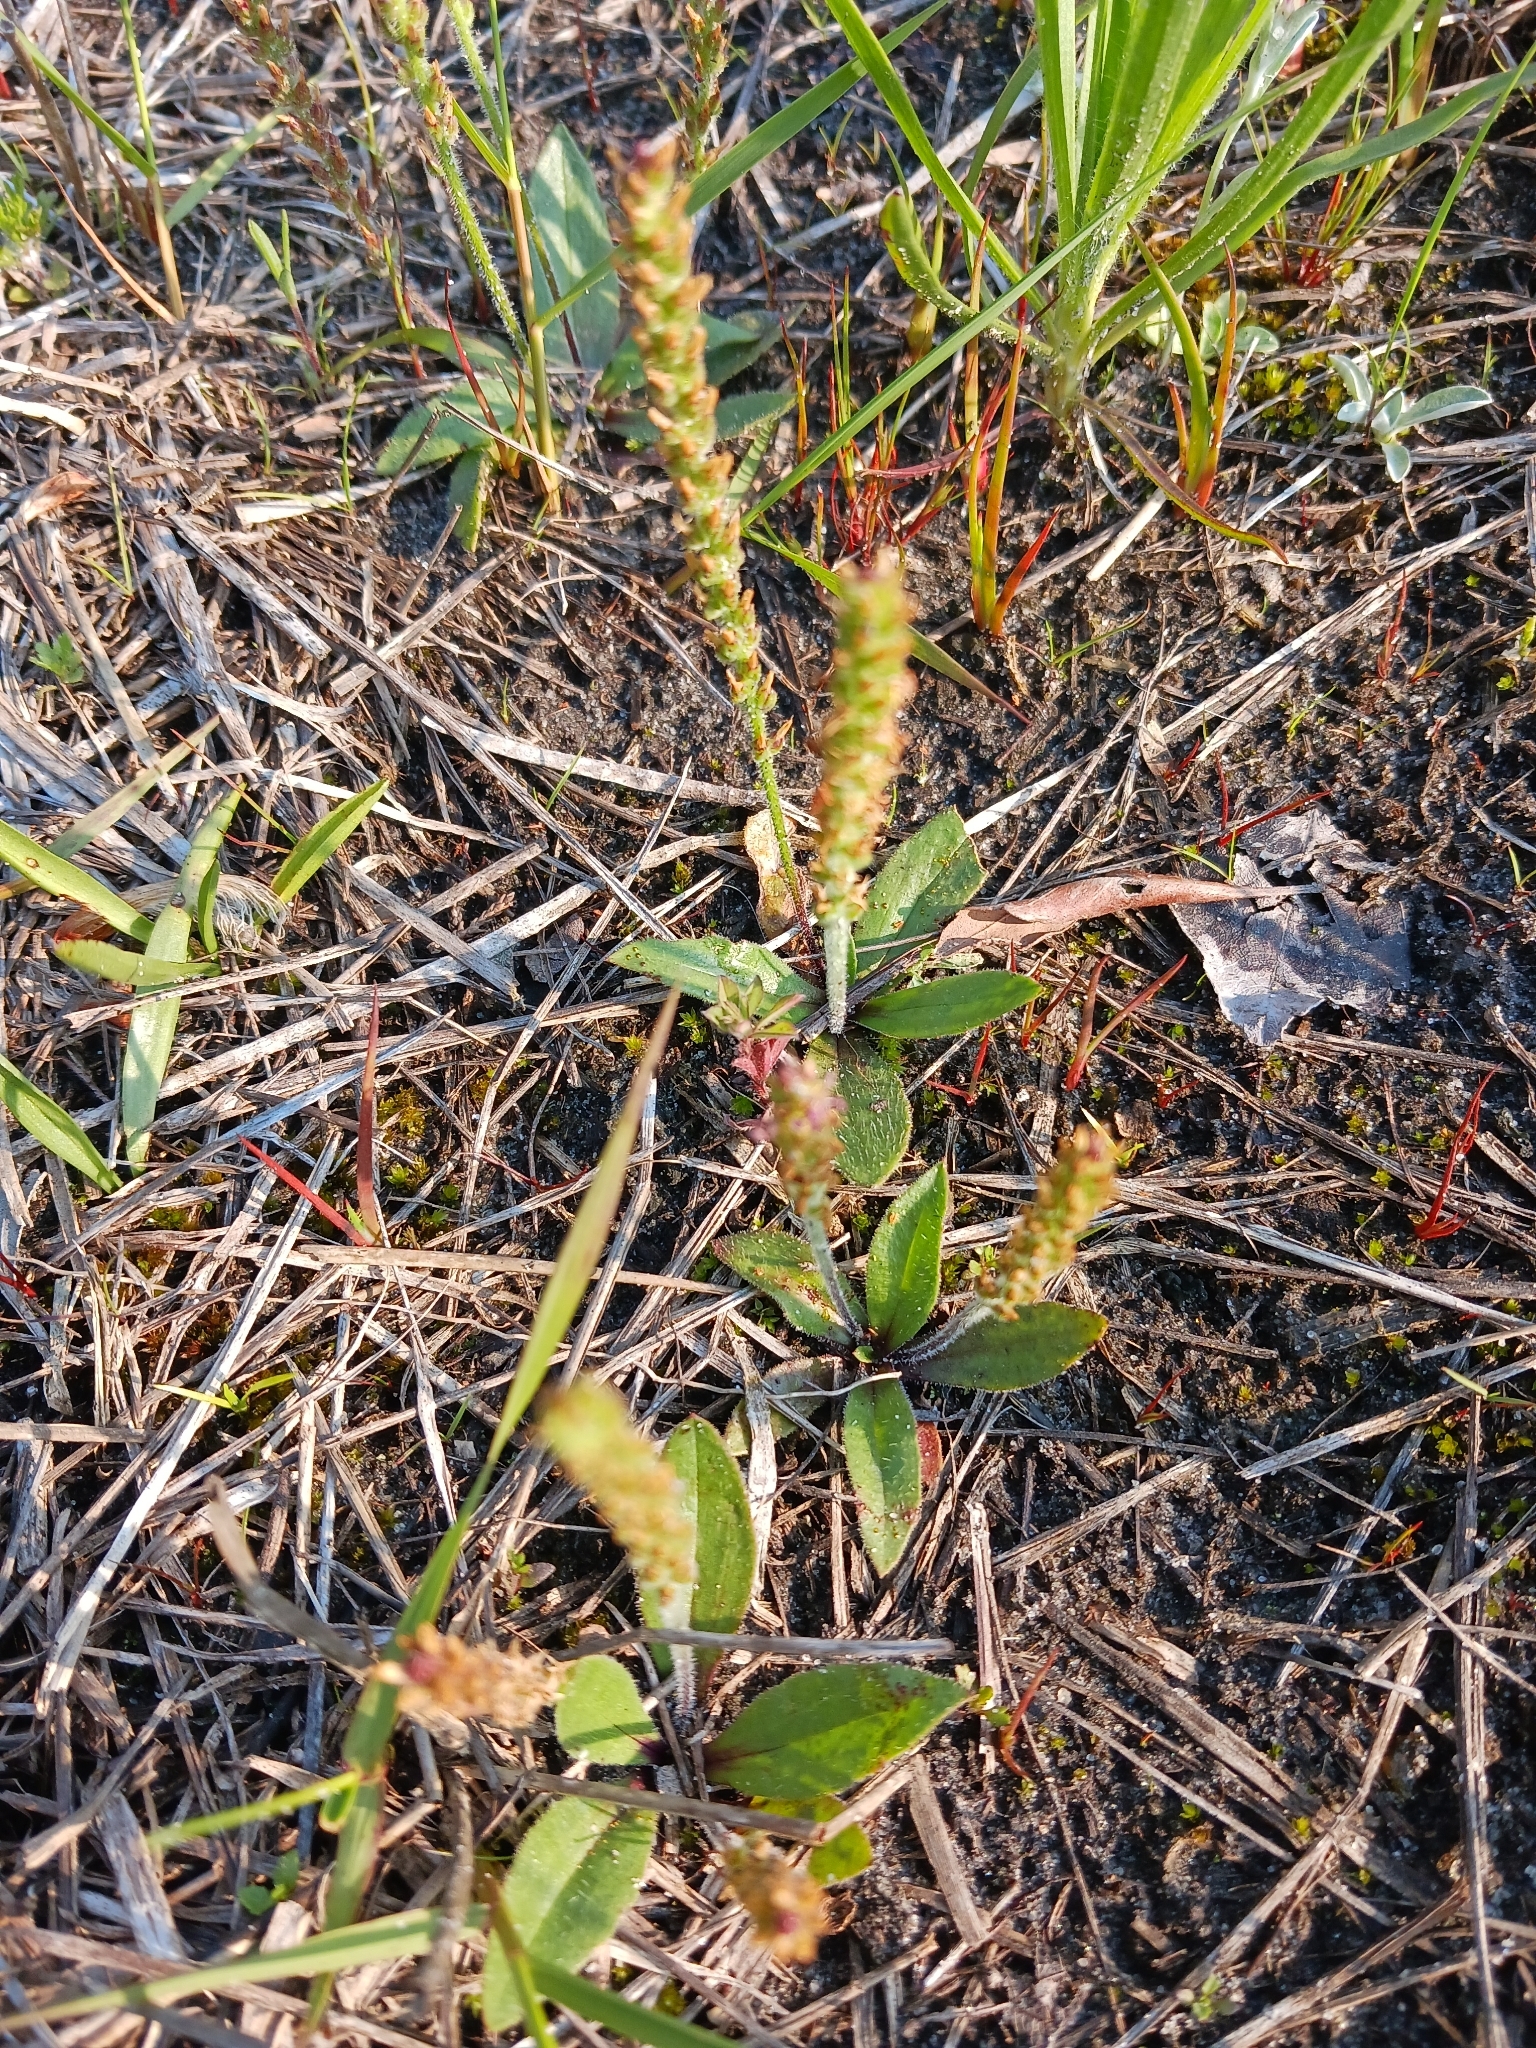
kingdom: Plantae
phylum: Tracheophyta
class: Magnoliopsida
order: Lamiales
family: Plantaginaceae
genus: Plantago
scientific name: Plantago virginica
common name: Hoary plantain
